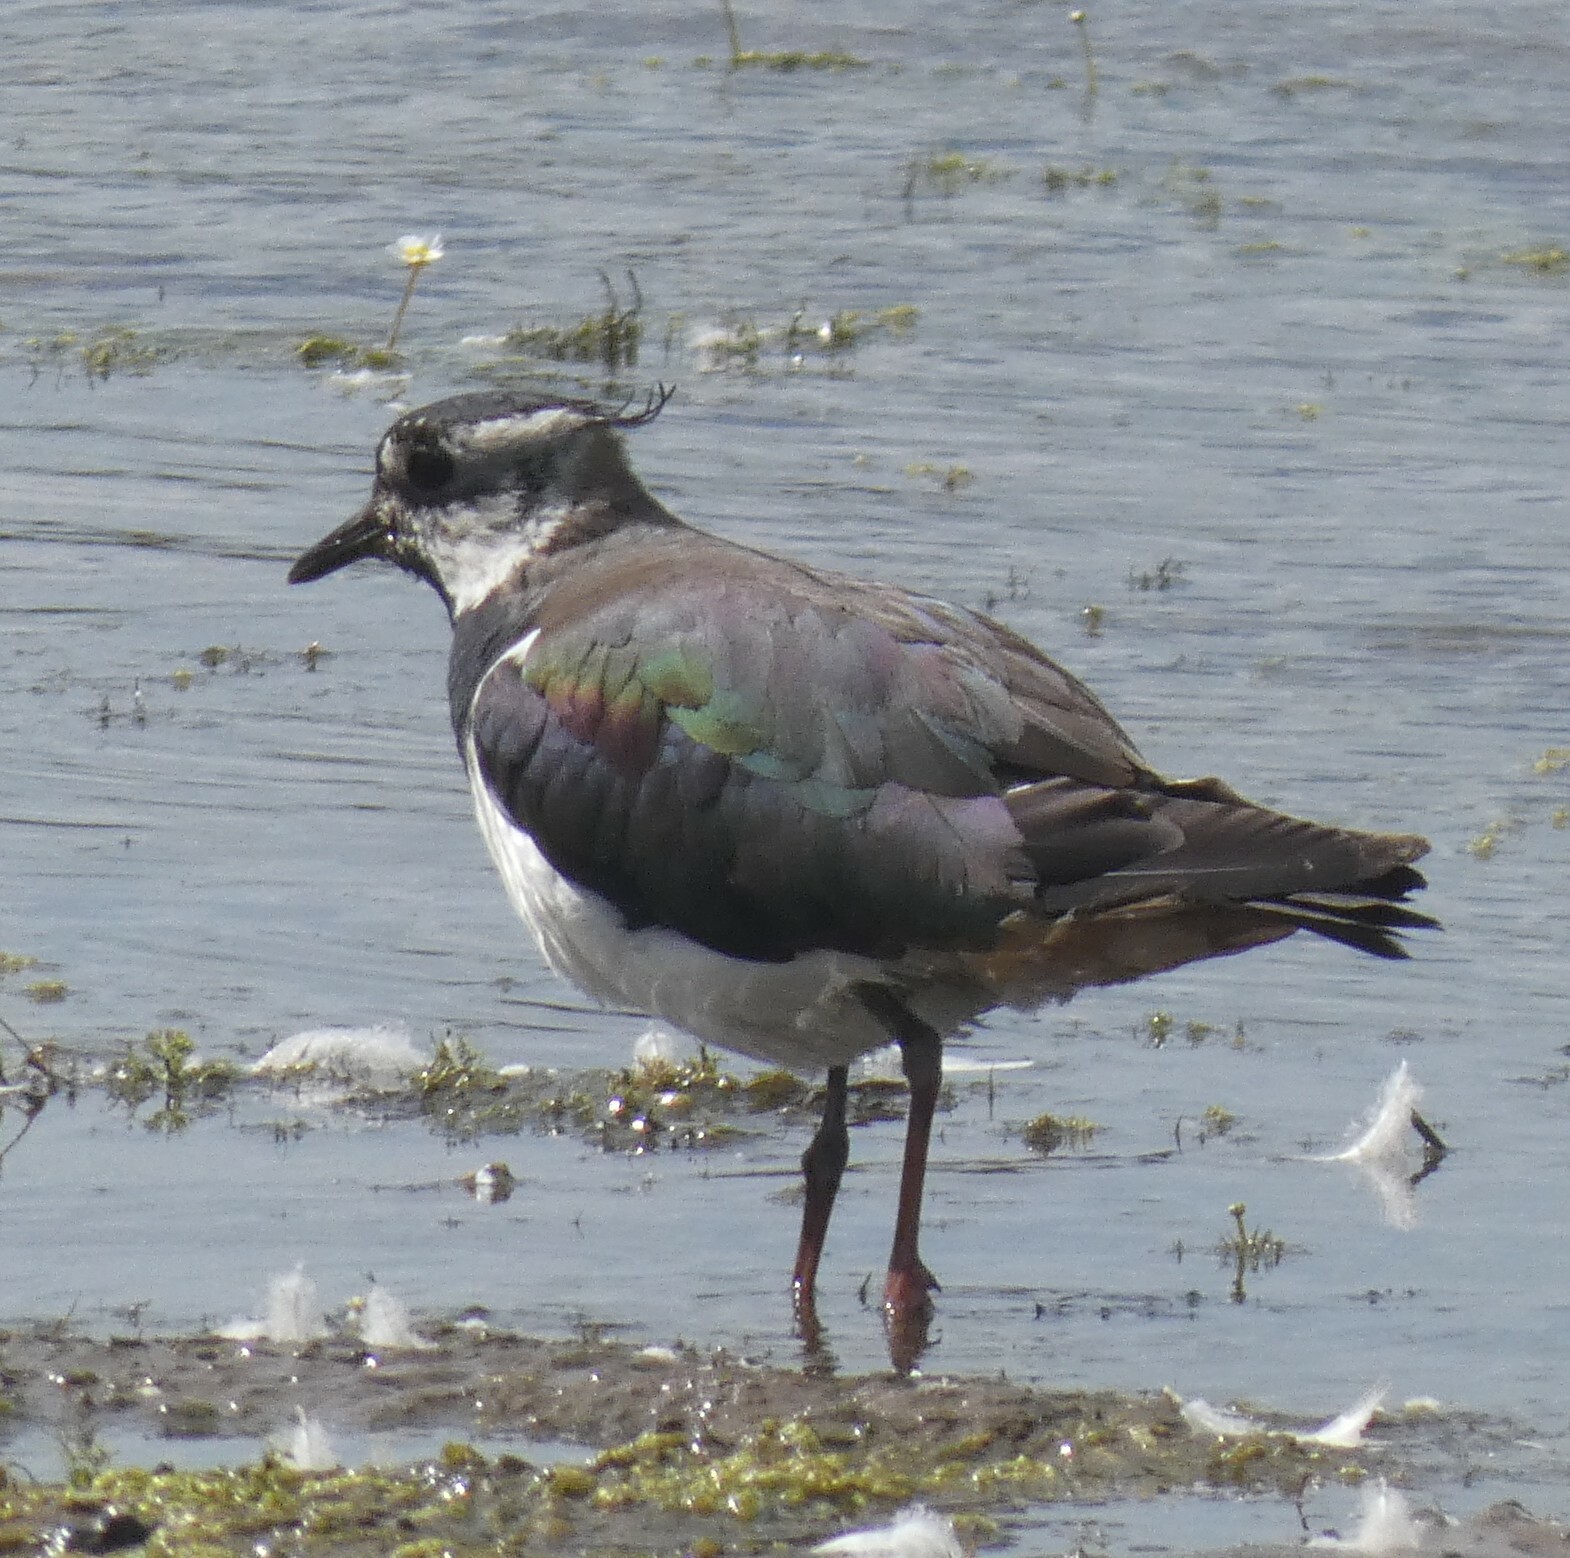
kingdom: Animalia
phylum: Chordata
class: Aves
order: Charadriiformes
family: Charadriidae
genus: Vanellus
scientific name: Vanellus vanellus
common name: Northern lapwing
